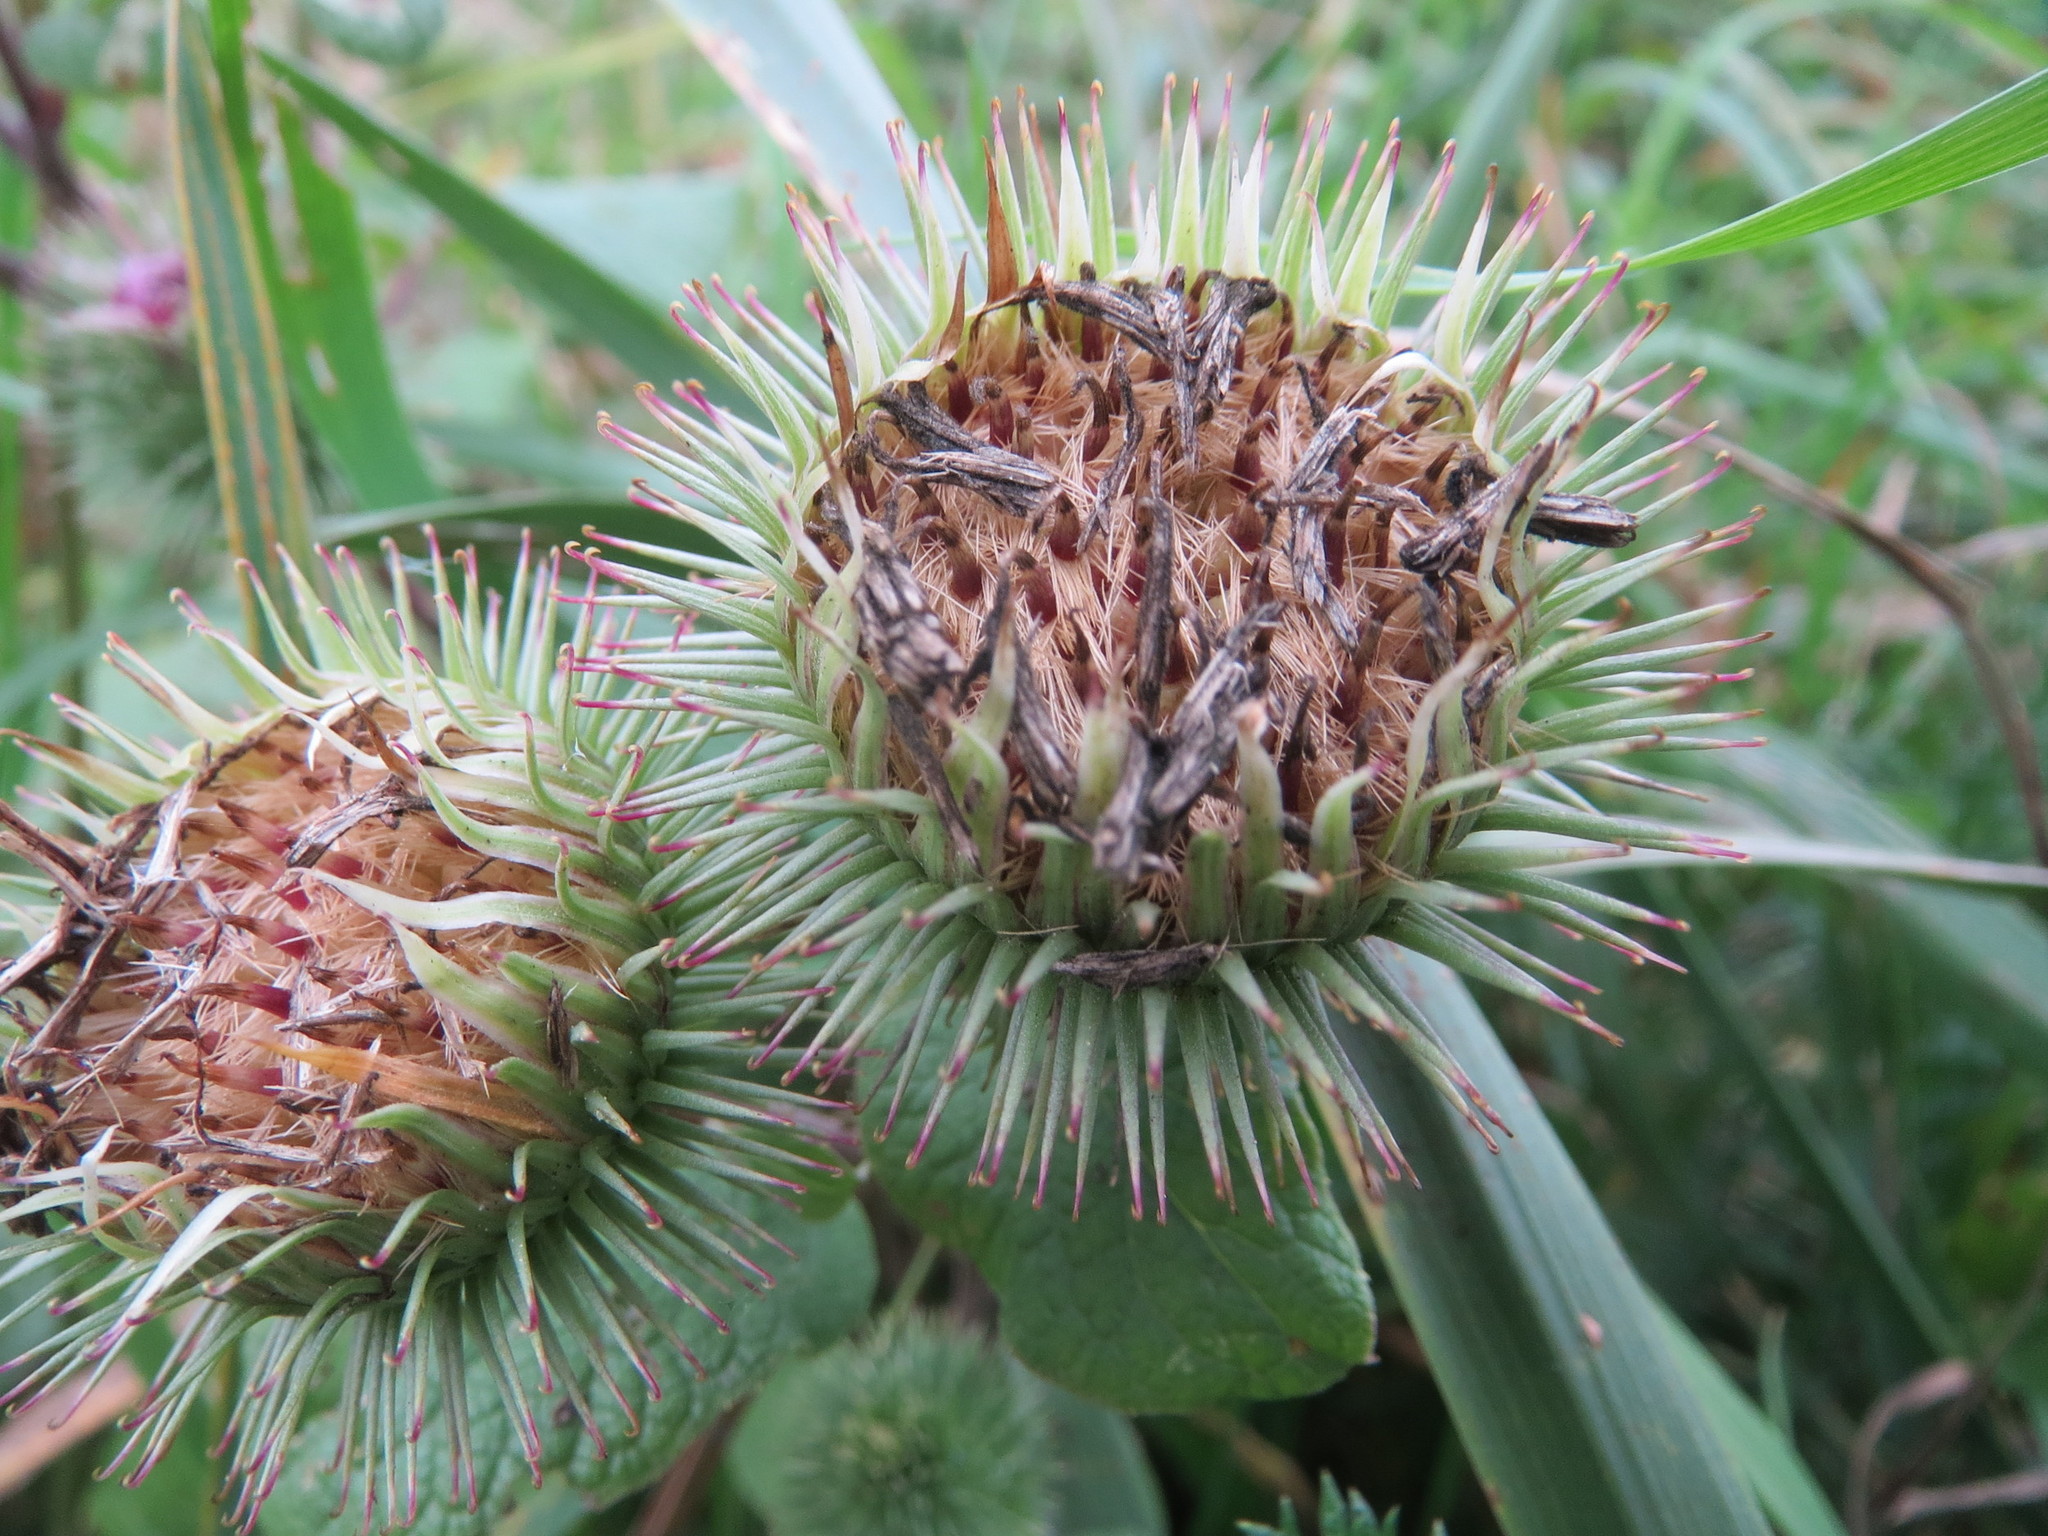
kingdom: Plantae
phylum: Tracheophyta
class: Magnoliopsida
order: Asterales
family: Asteraceae
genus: Arctium
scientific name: Arctium lappa
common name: Greater burdock
